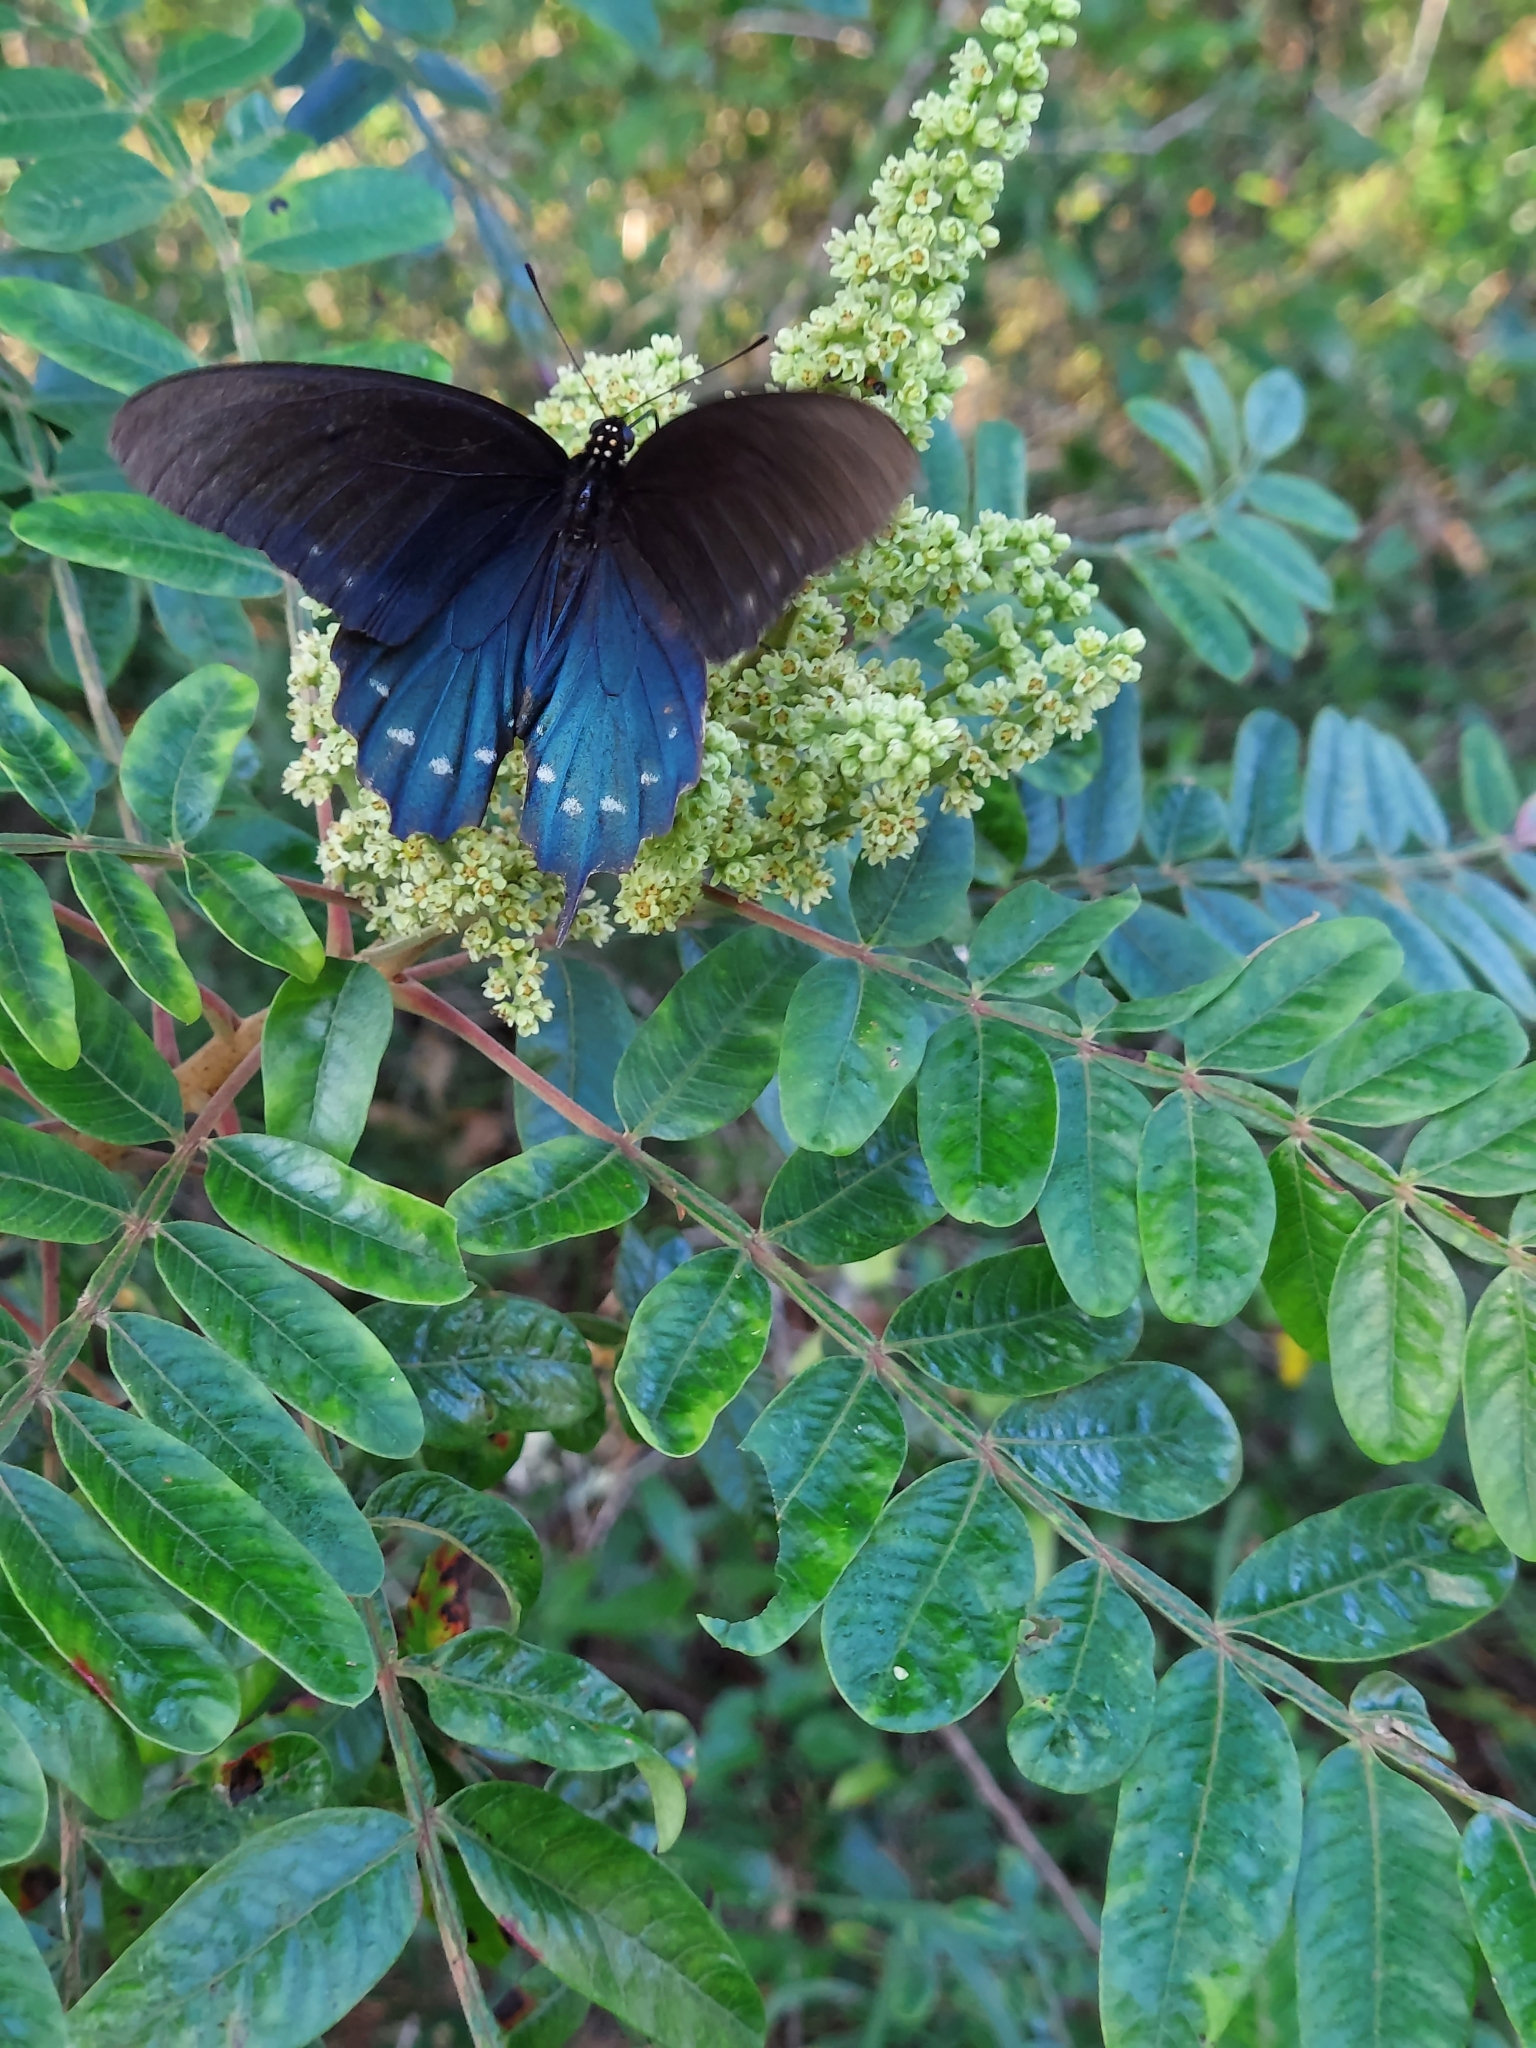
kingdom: Animalia
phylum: Arthropoda
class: Insecta
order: Lepidoptera
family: Papilionidae
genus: Battus
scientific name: Battus philenor
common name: Pipevine swallowtail
